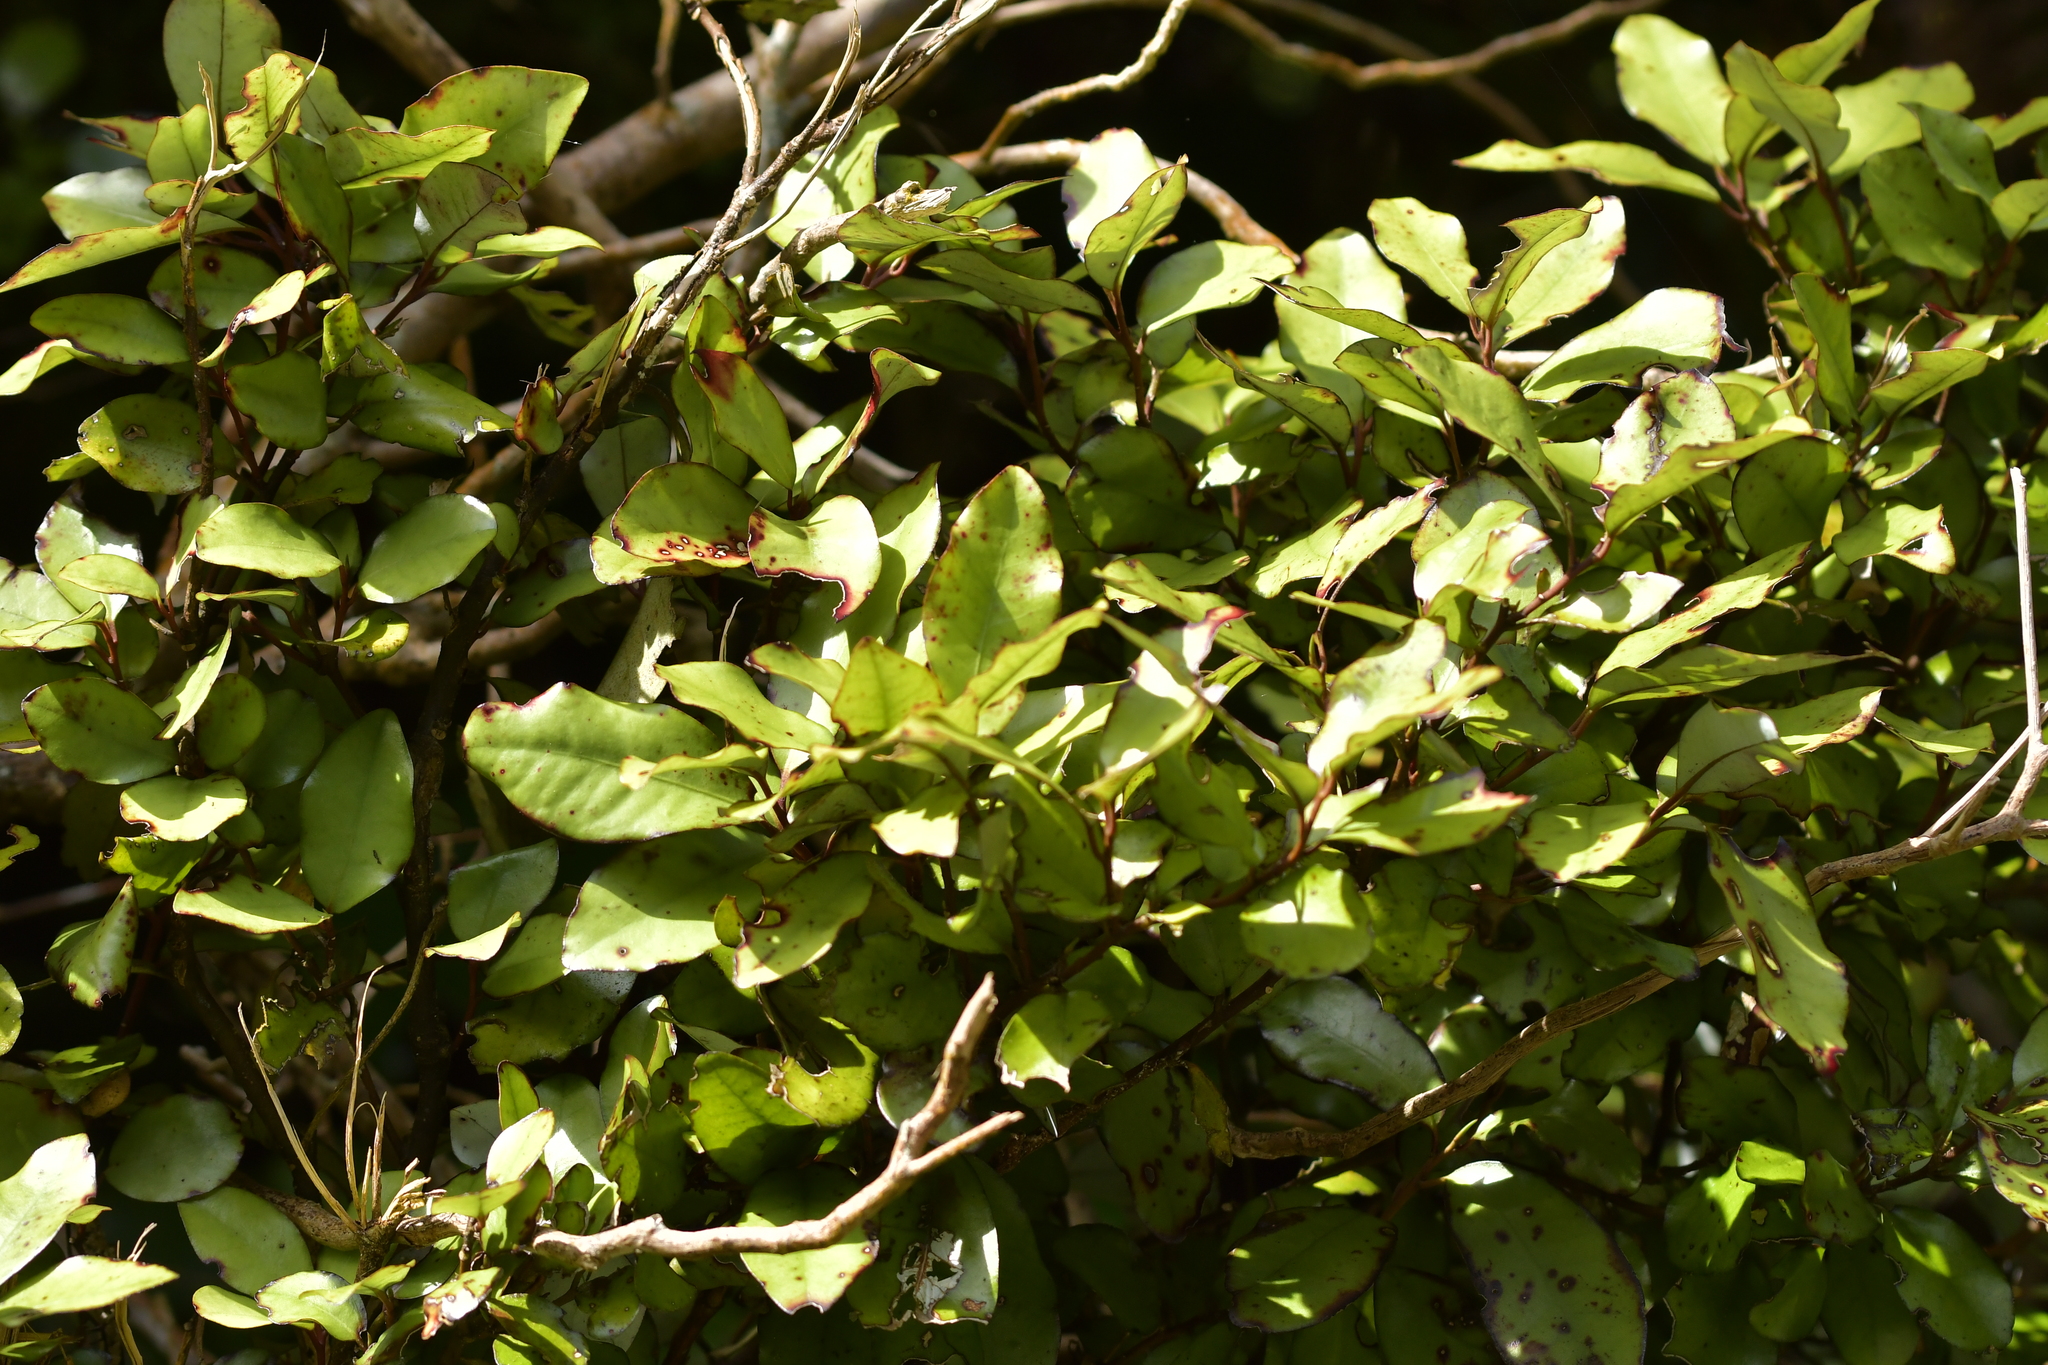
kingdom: Plantae
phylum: Tracheophyta
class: Magnoliopsida
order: Canellales
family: Winteraceae
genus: Pseudowintera
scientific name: Pseudowintera colorata
